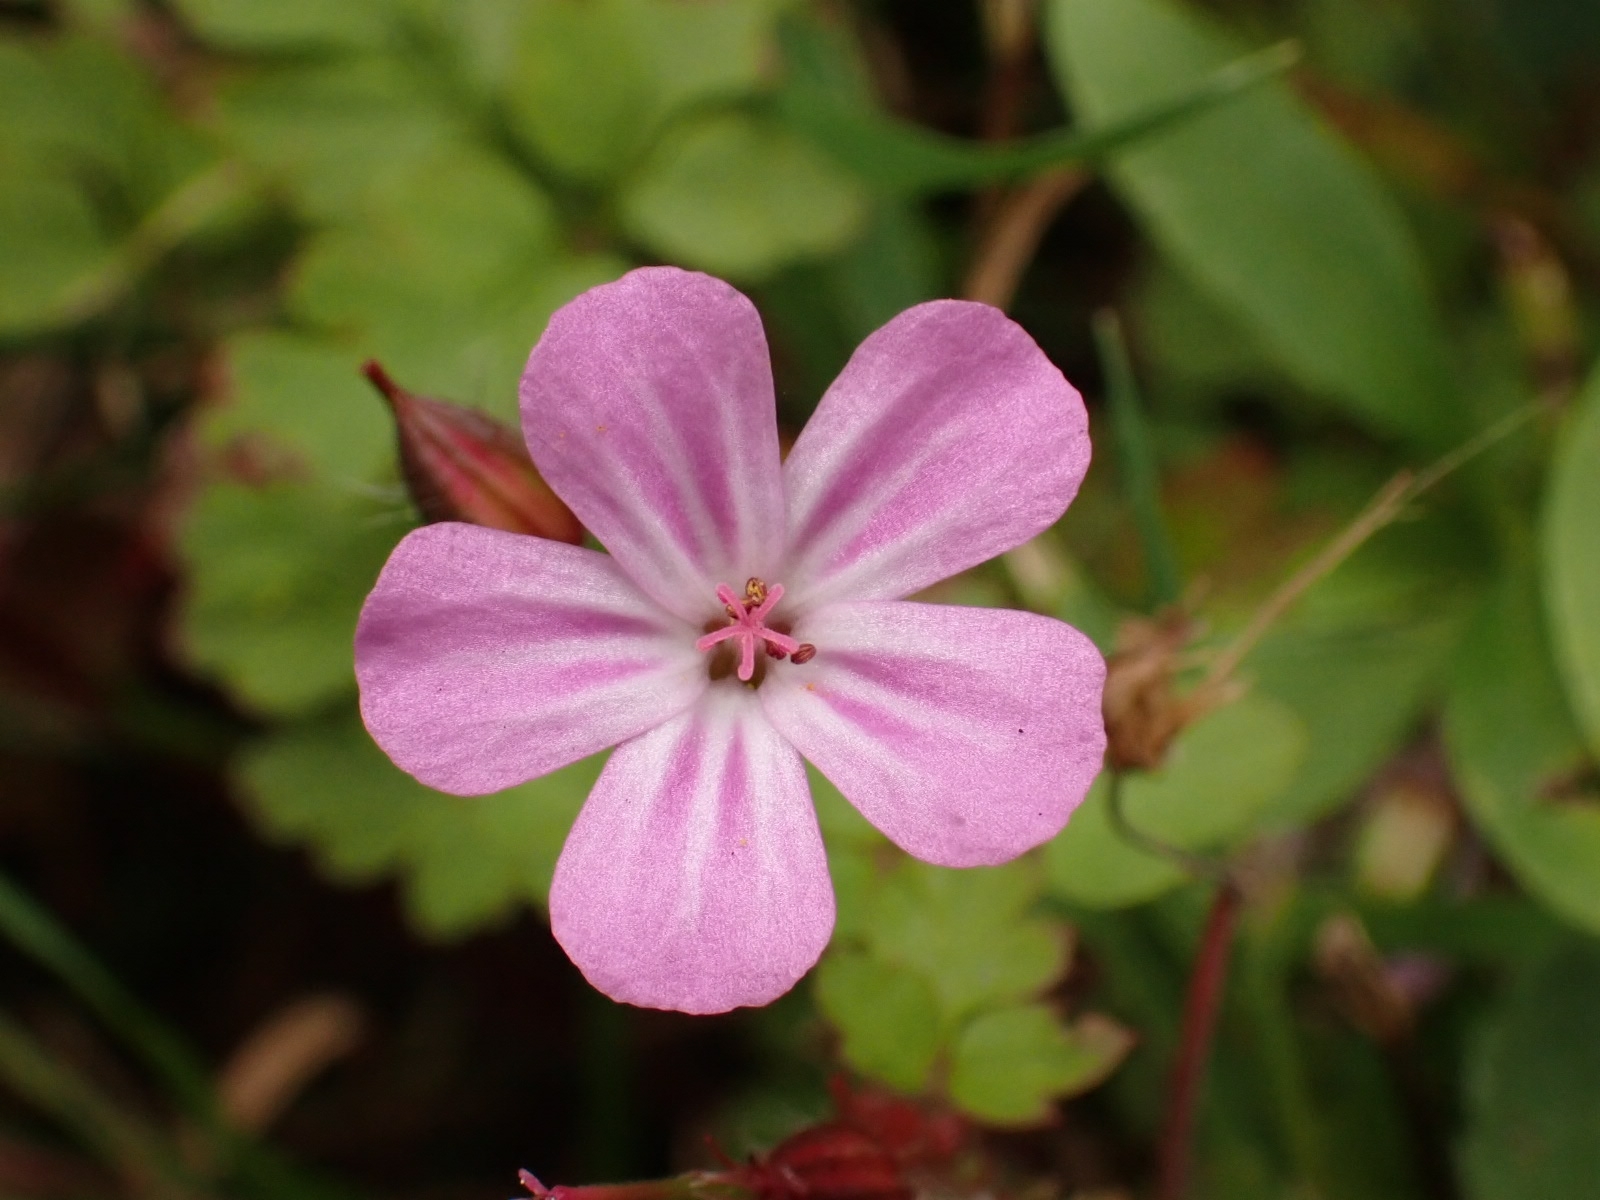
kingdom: Plantae
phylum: Tracheophyta
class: Magnoliopsida
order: Geraniales
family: Geraniaceae
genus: Geranium
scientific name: Geranium robertianum
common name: Herb-robert
